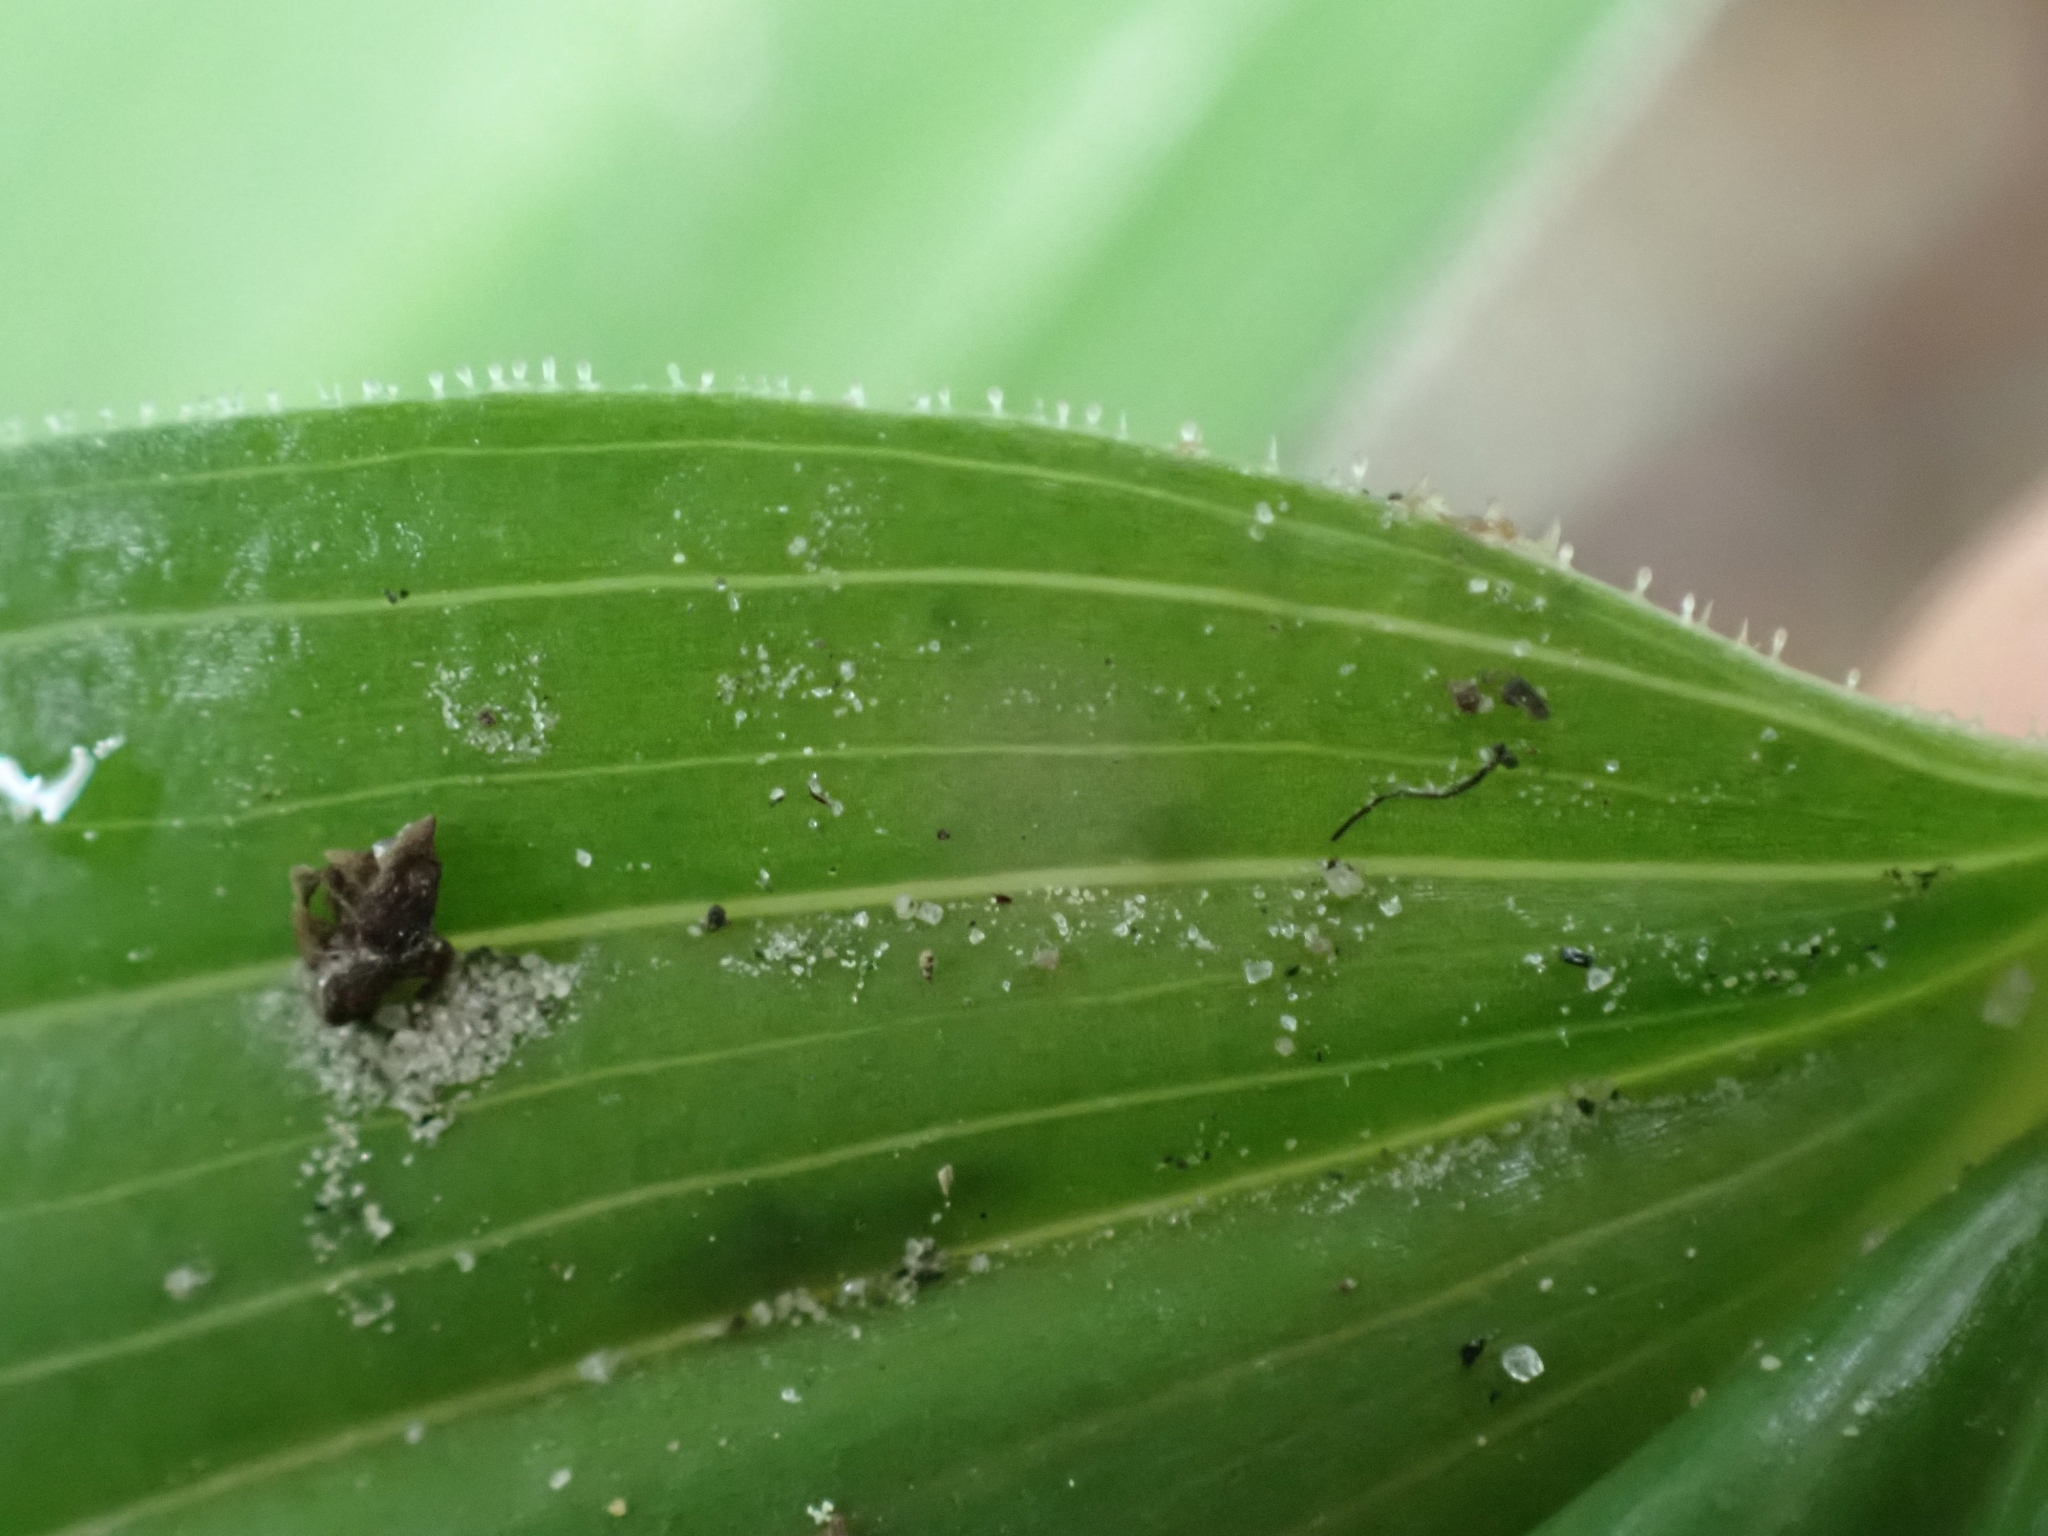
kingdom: Plantae
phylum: Tracheophyta
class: Liliopsida
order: Asparagales
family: Asparagaceae
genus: Maianthemum
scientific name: Maianthemum racemosum
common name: False spikenard
